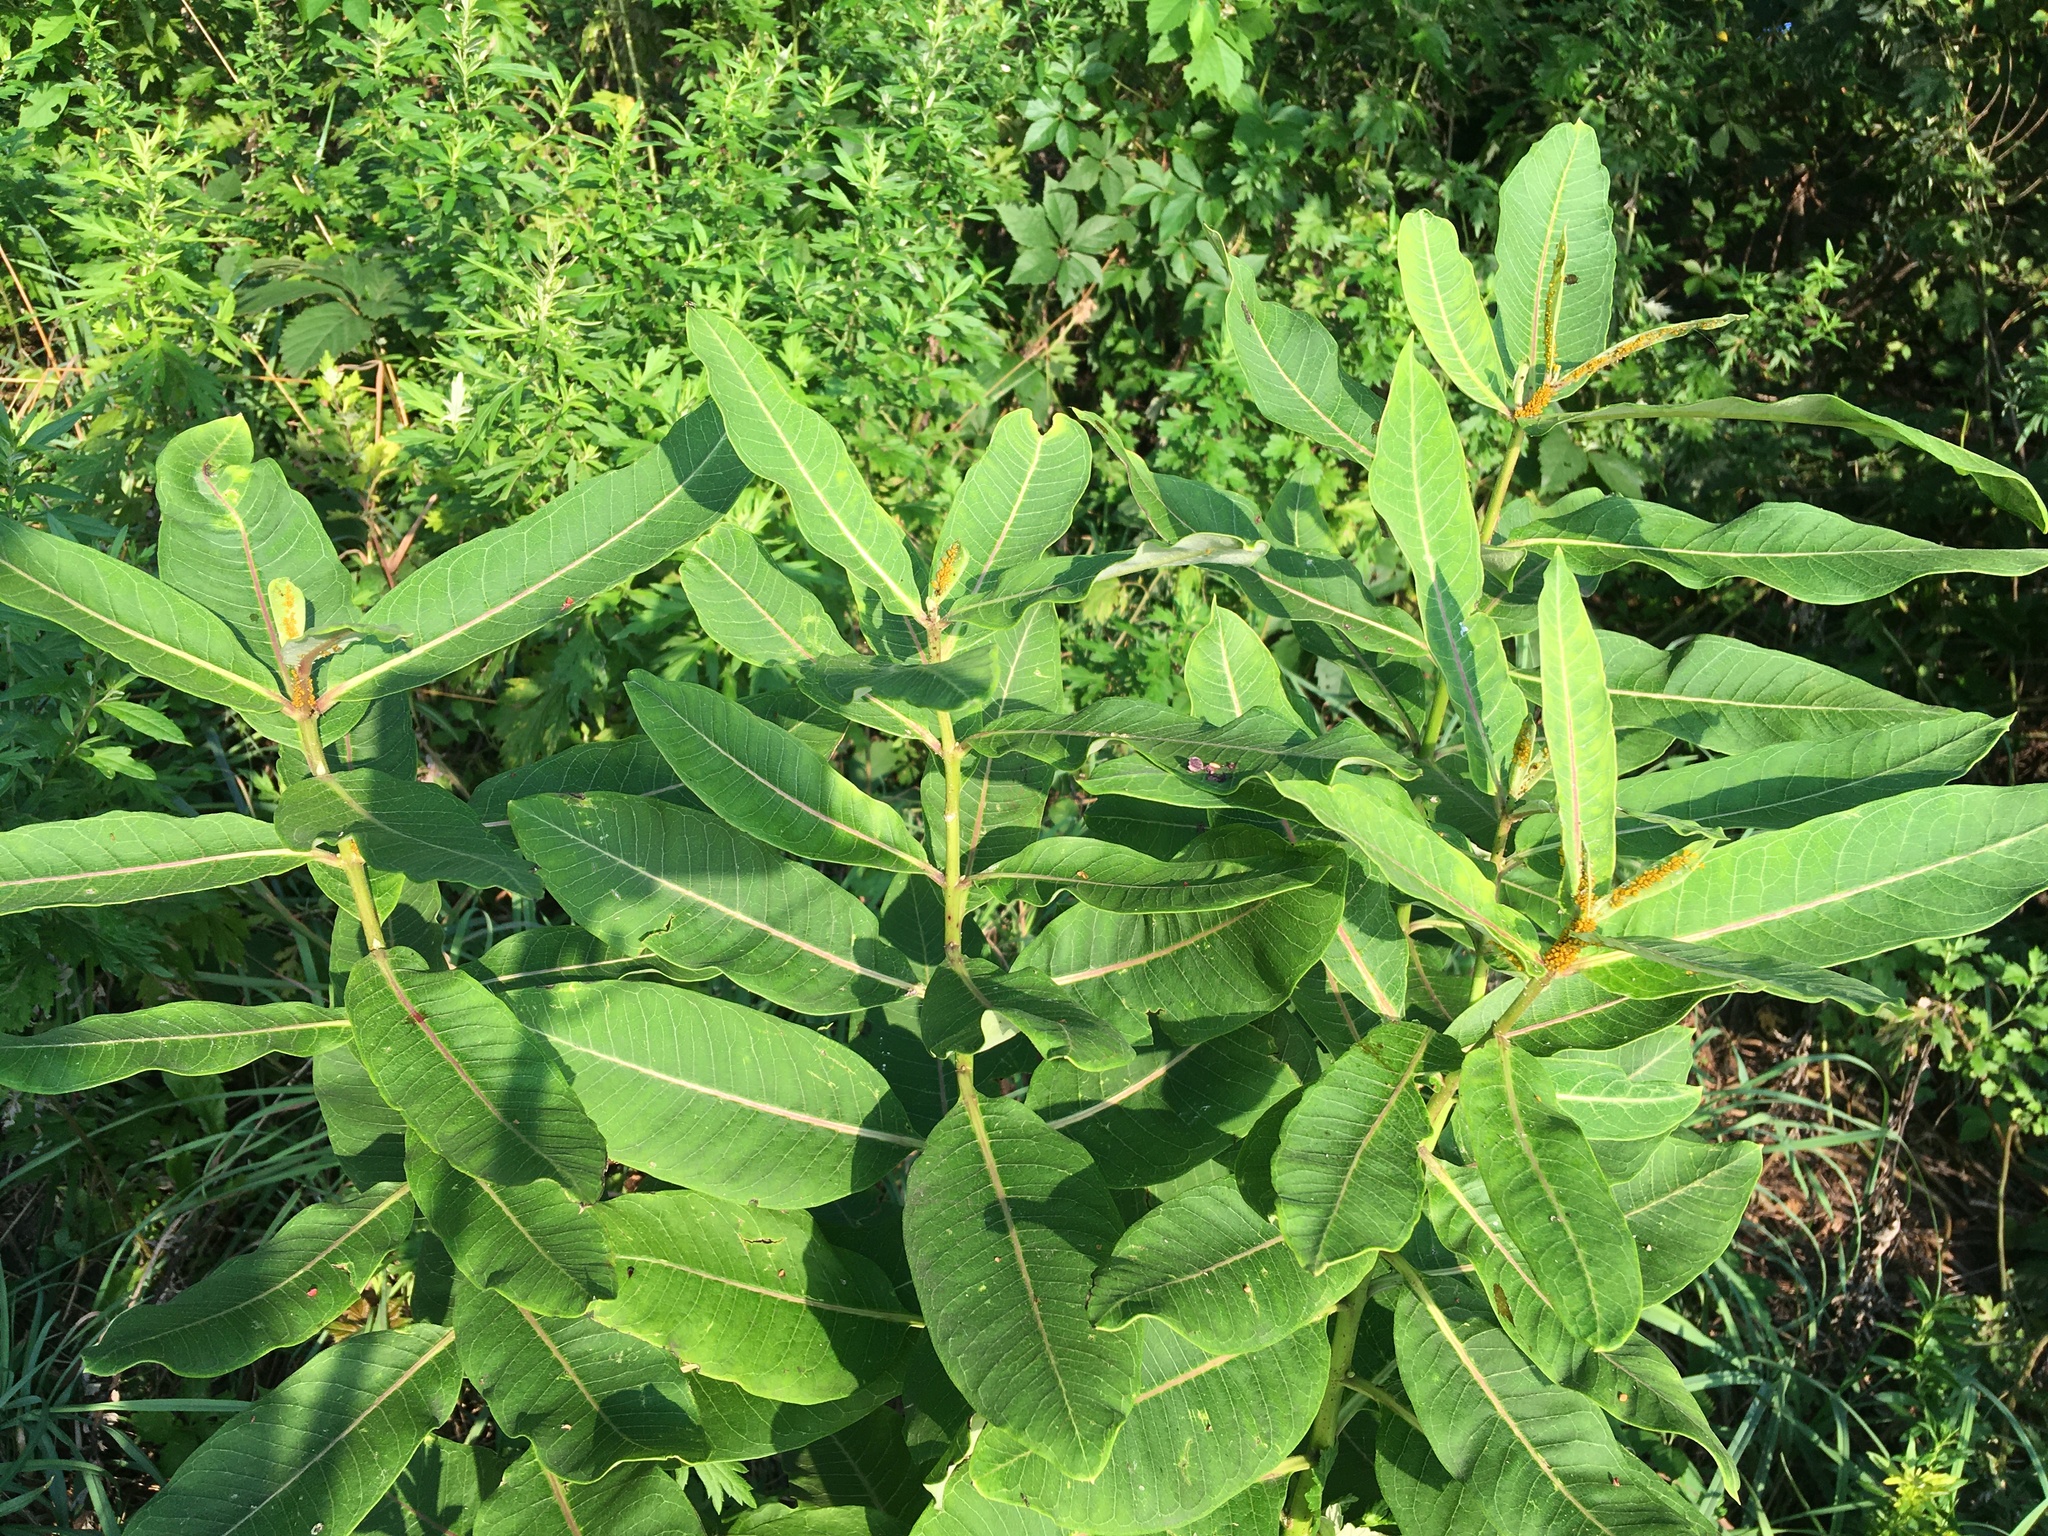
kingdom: Plantae
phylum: Tracheophyta
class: Magnoliopsida
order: Gentianales
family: Apocynaceae
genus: Asclepias
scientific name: Asclepias syriaca
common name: Common milkweed
